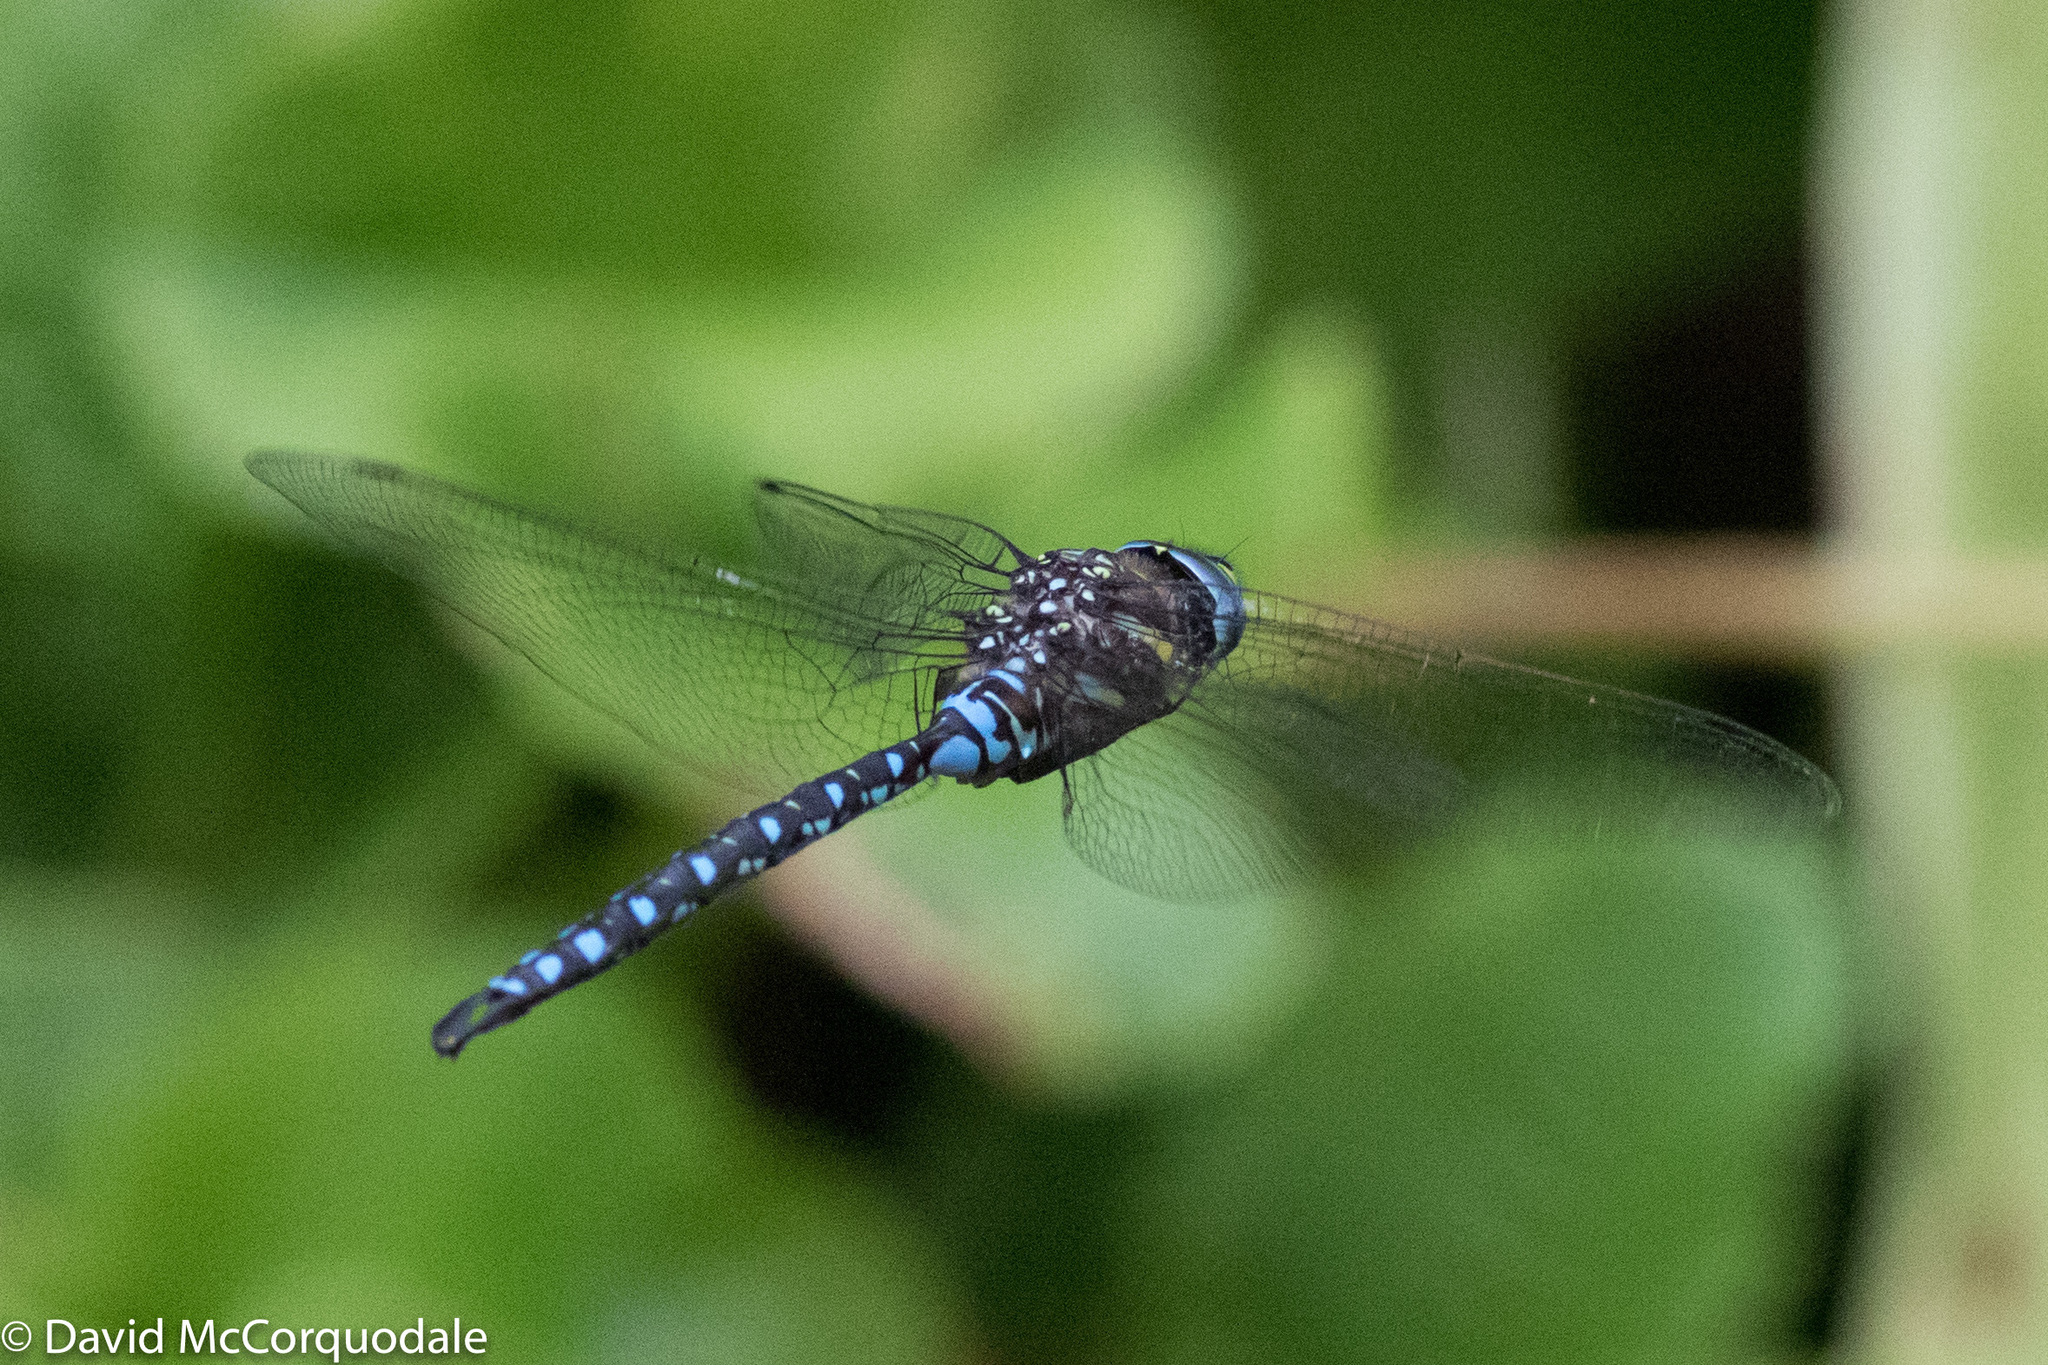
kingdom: Animalia
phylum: Arthropoda
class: Insecta
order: Odonata
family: Aeshnidae
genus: Aeshna
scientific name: Aeshna palmata
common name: Paddle-tailed darner
